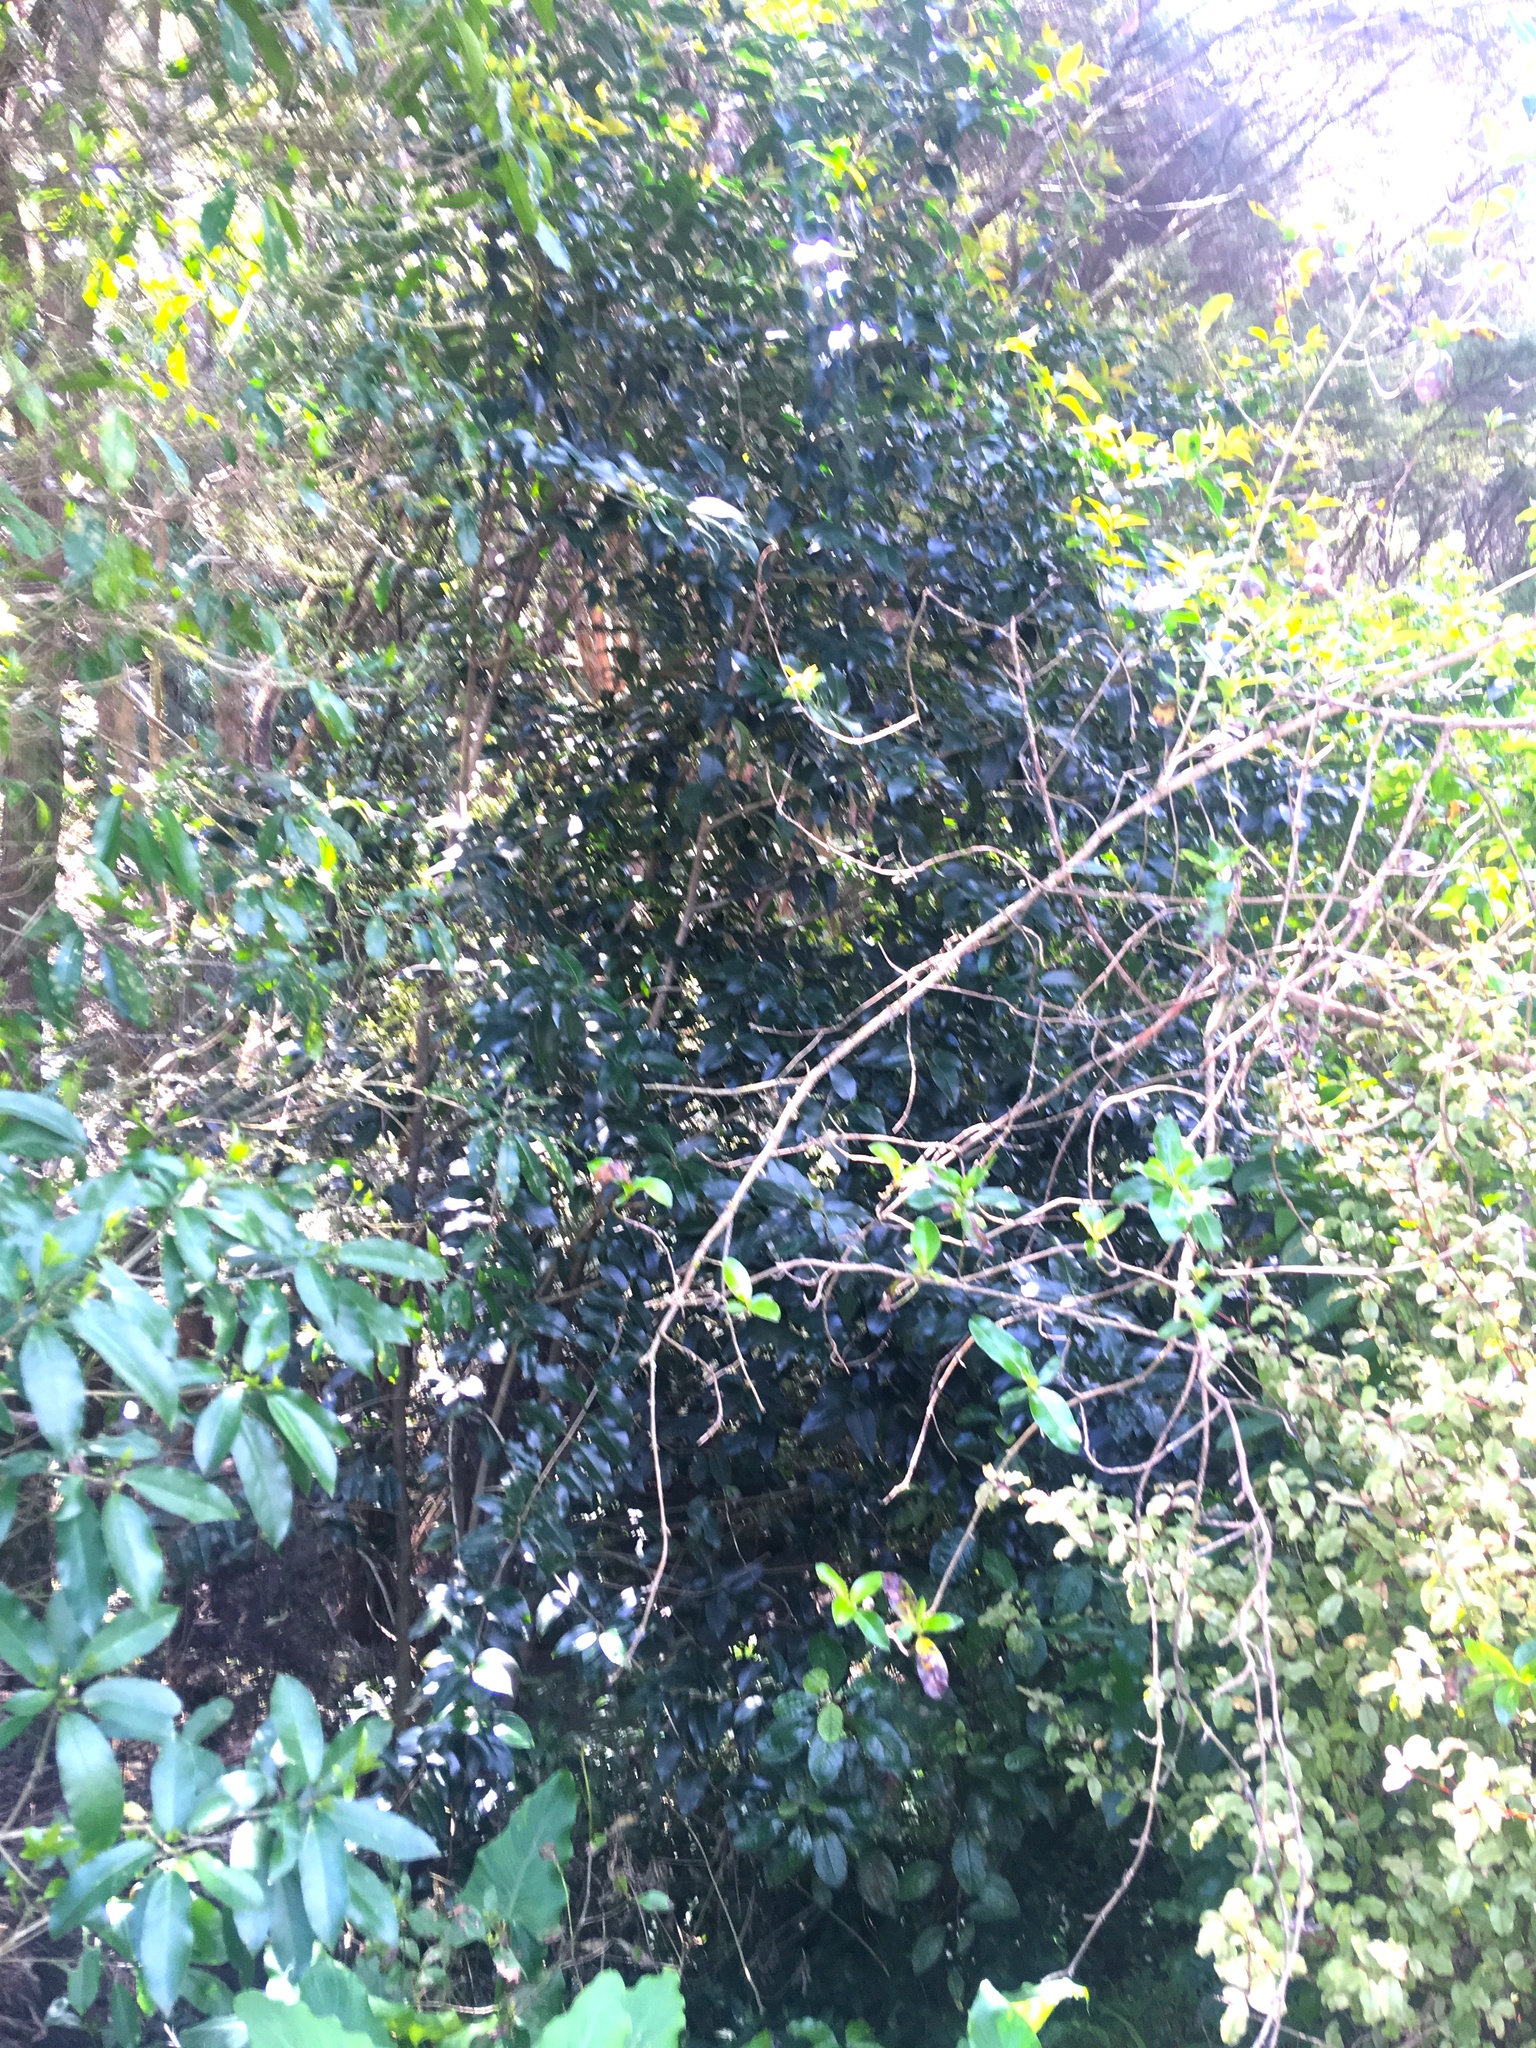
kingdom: Plantae
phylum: Tracheophyta
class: Magnoliopsida
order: Lamiales
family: Oleaceae
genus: Ligustrum
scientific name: Ligustrum lucidum
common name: Glossy privet
